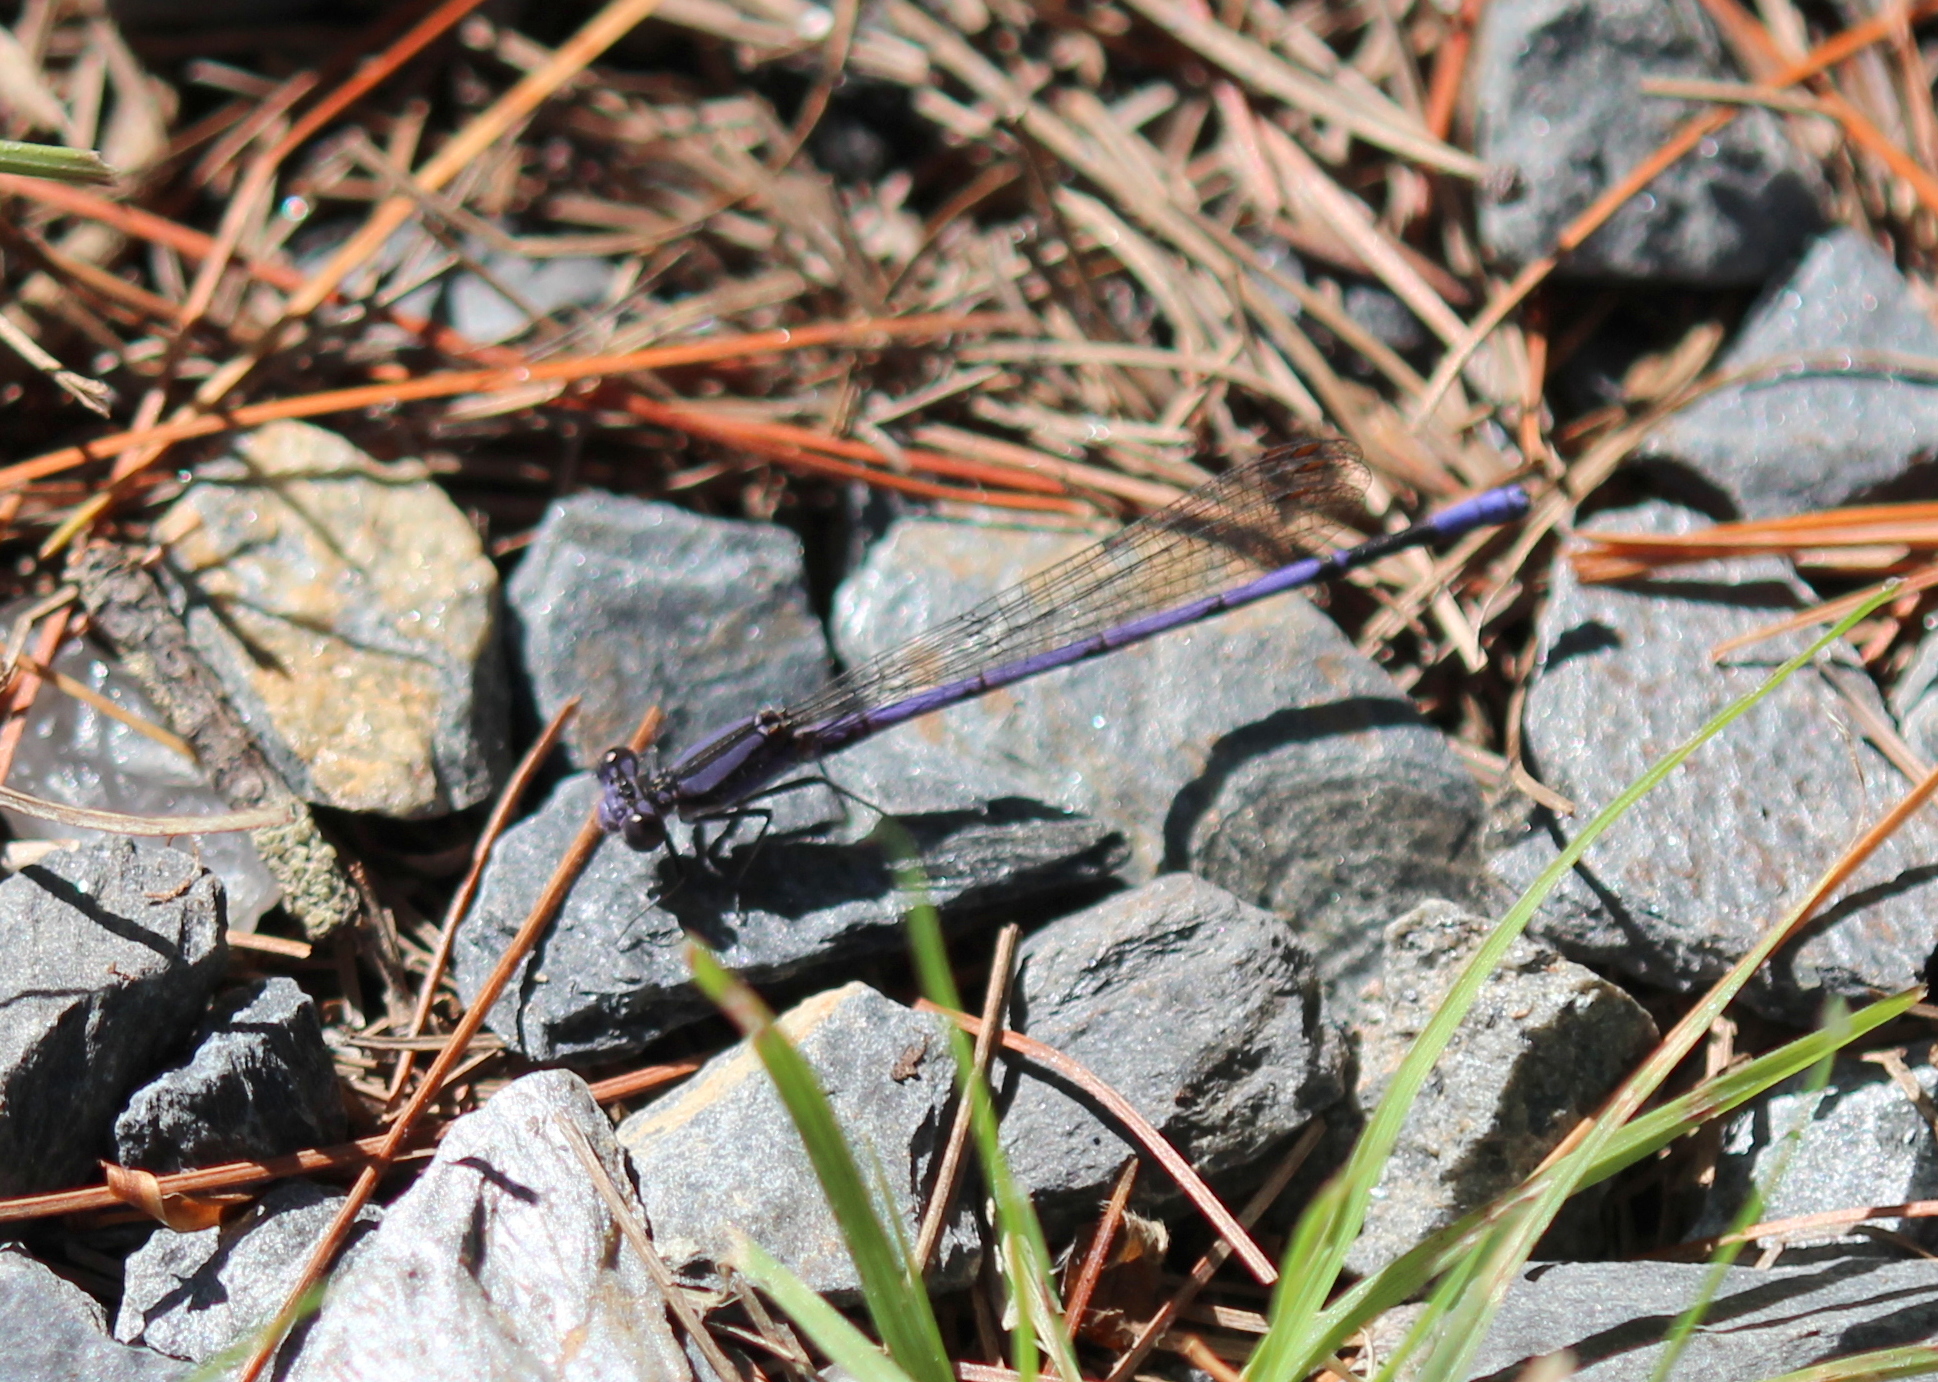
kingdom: Animalia
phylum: Arthropoda
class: Insecta
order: Odonata
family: Coenagrionidae
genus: Argia
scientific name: Argia fumipennis
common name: Variable dancer
